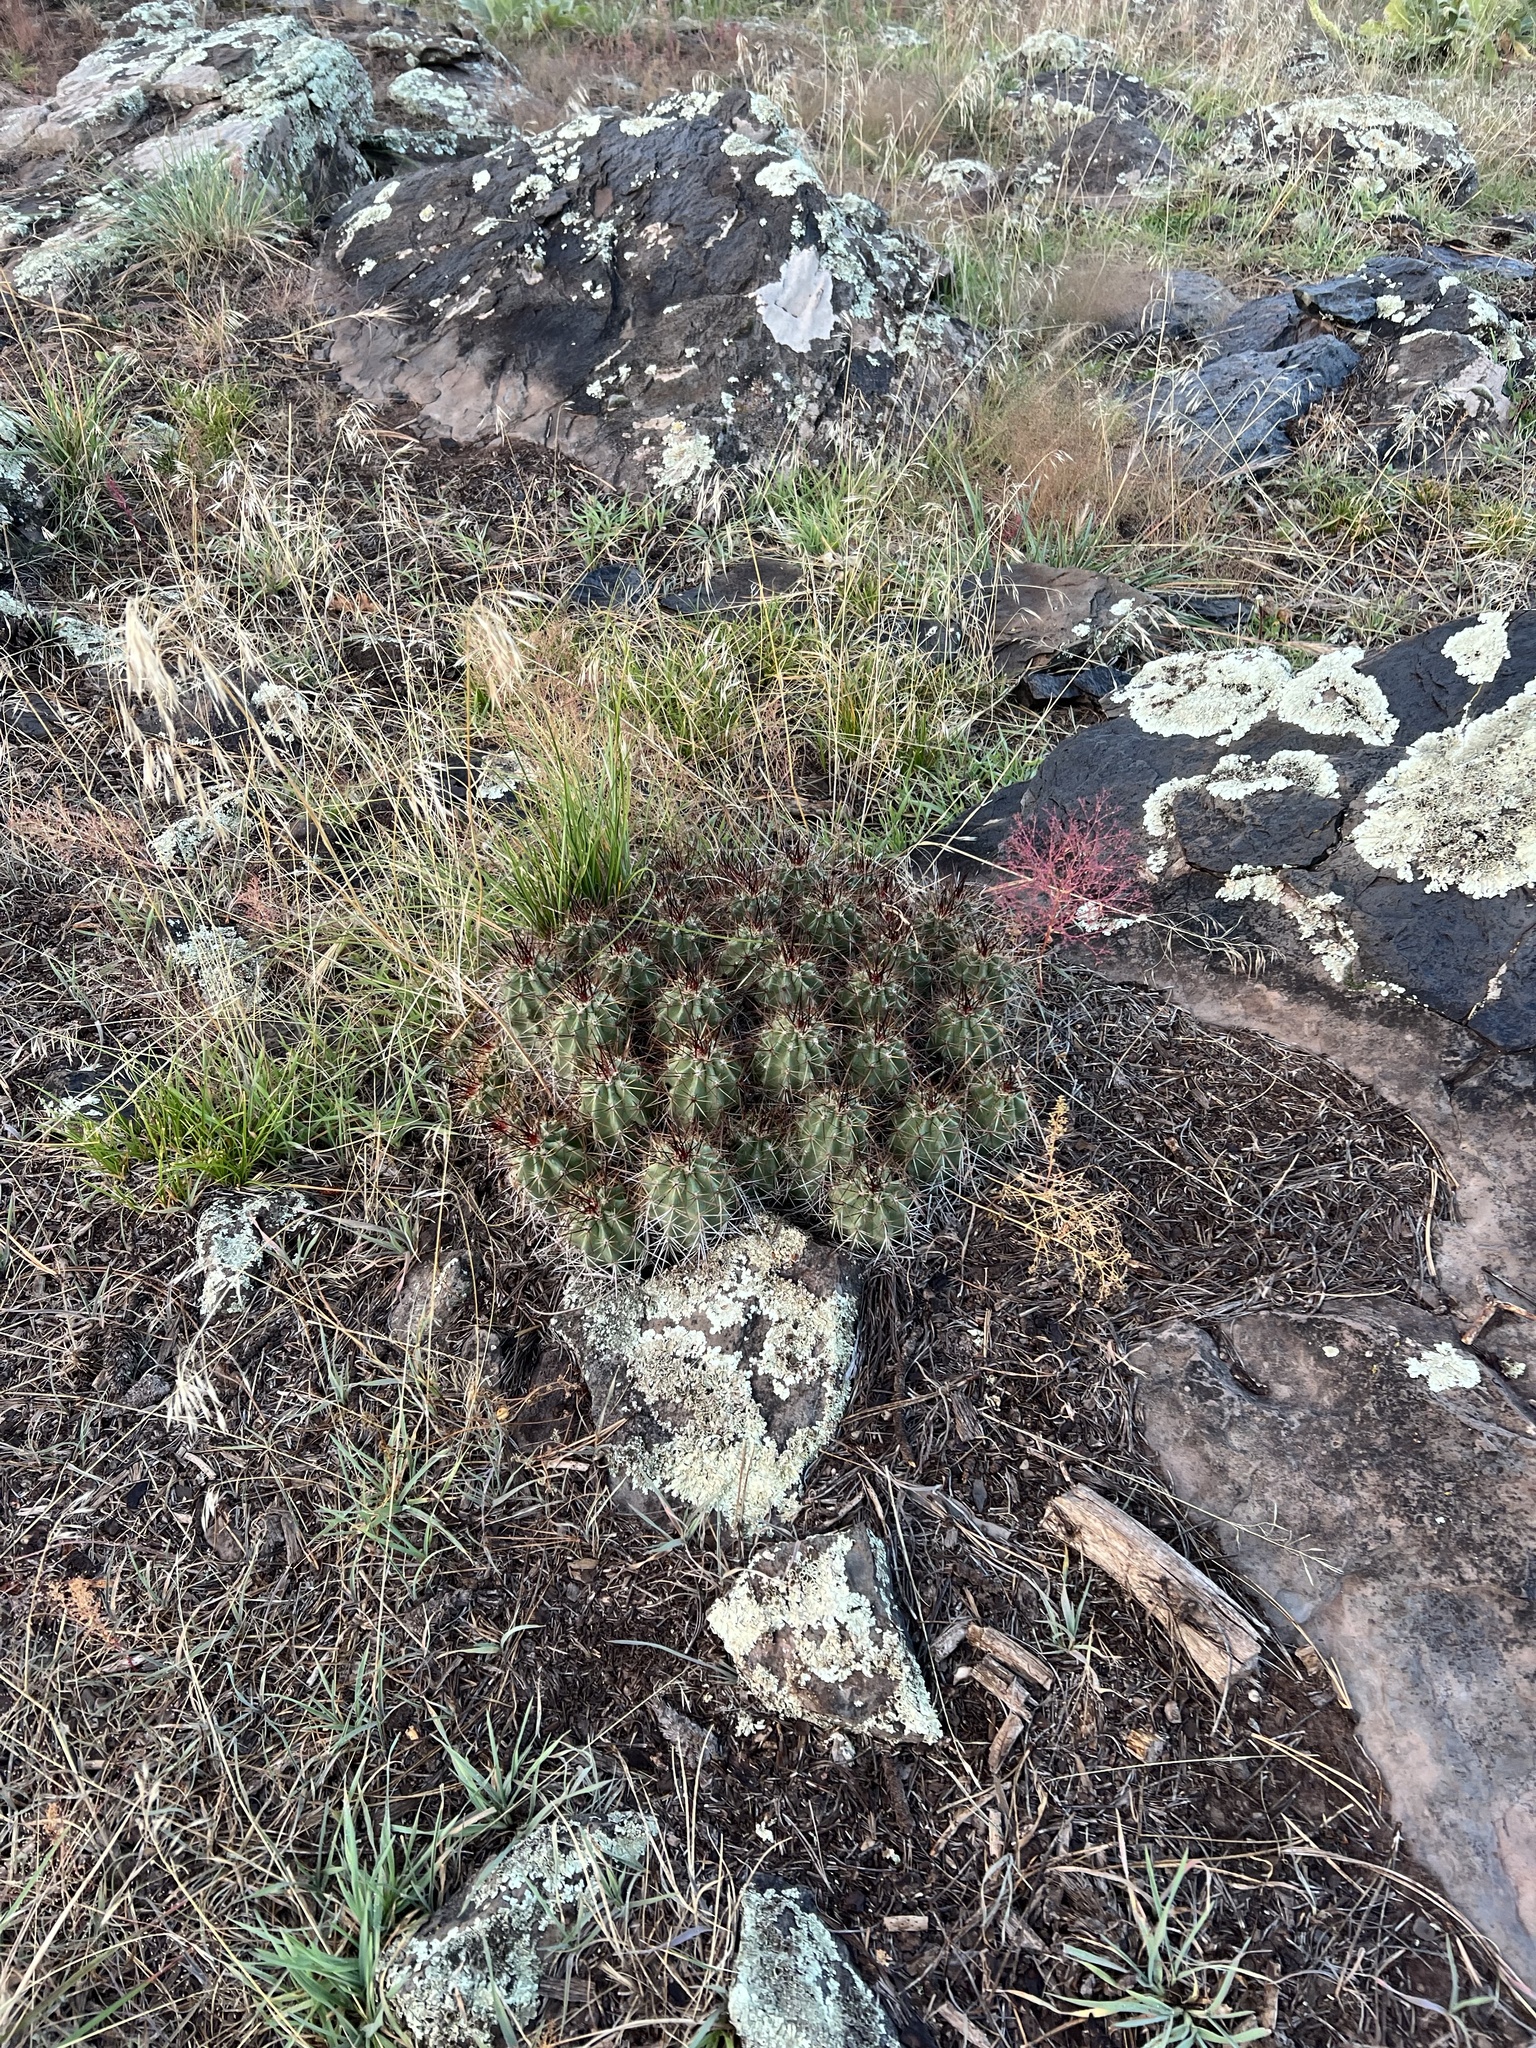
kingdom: Plantae
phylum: Tracheophyta
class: Magnoliopsida
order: Caryophyllales
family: Cactaceae
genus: Echinocereus
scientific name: Echinocereus bakeri
